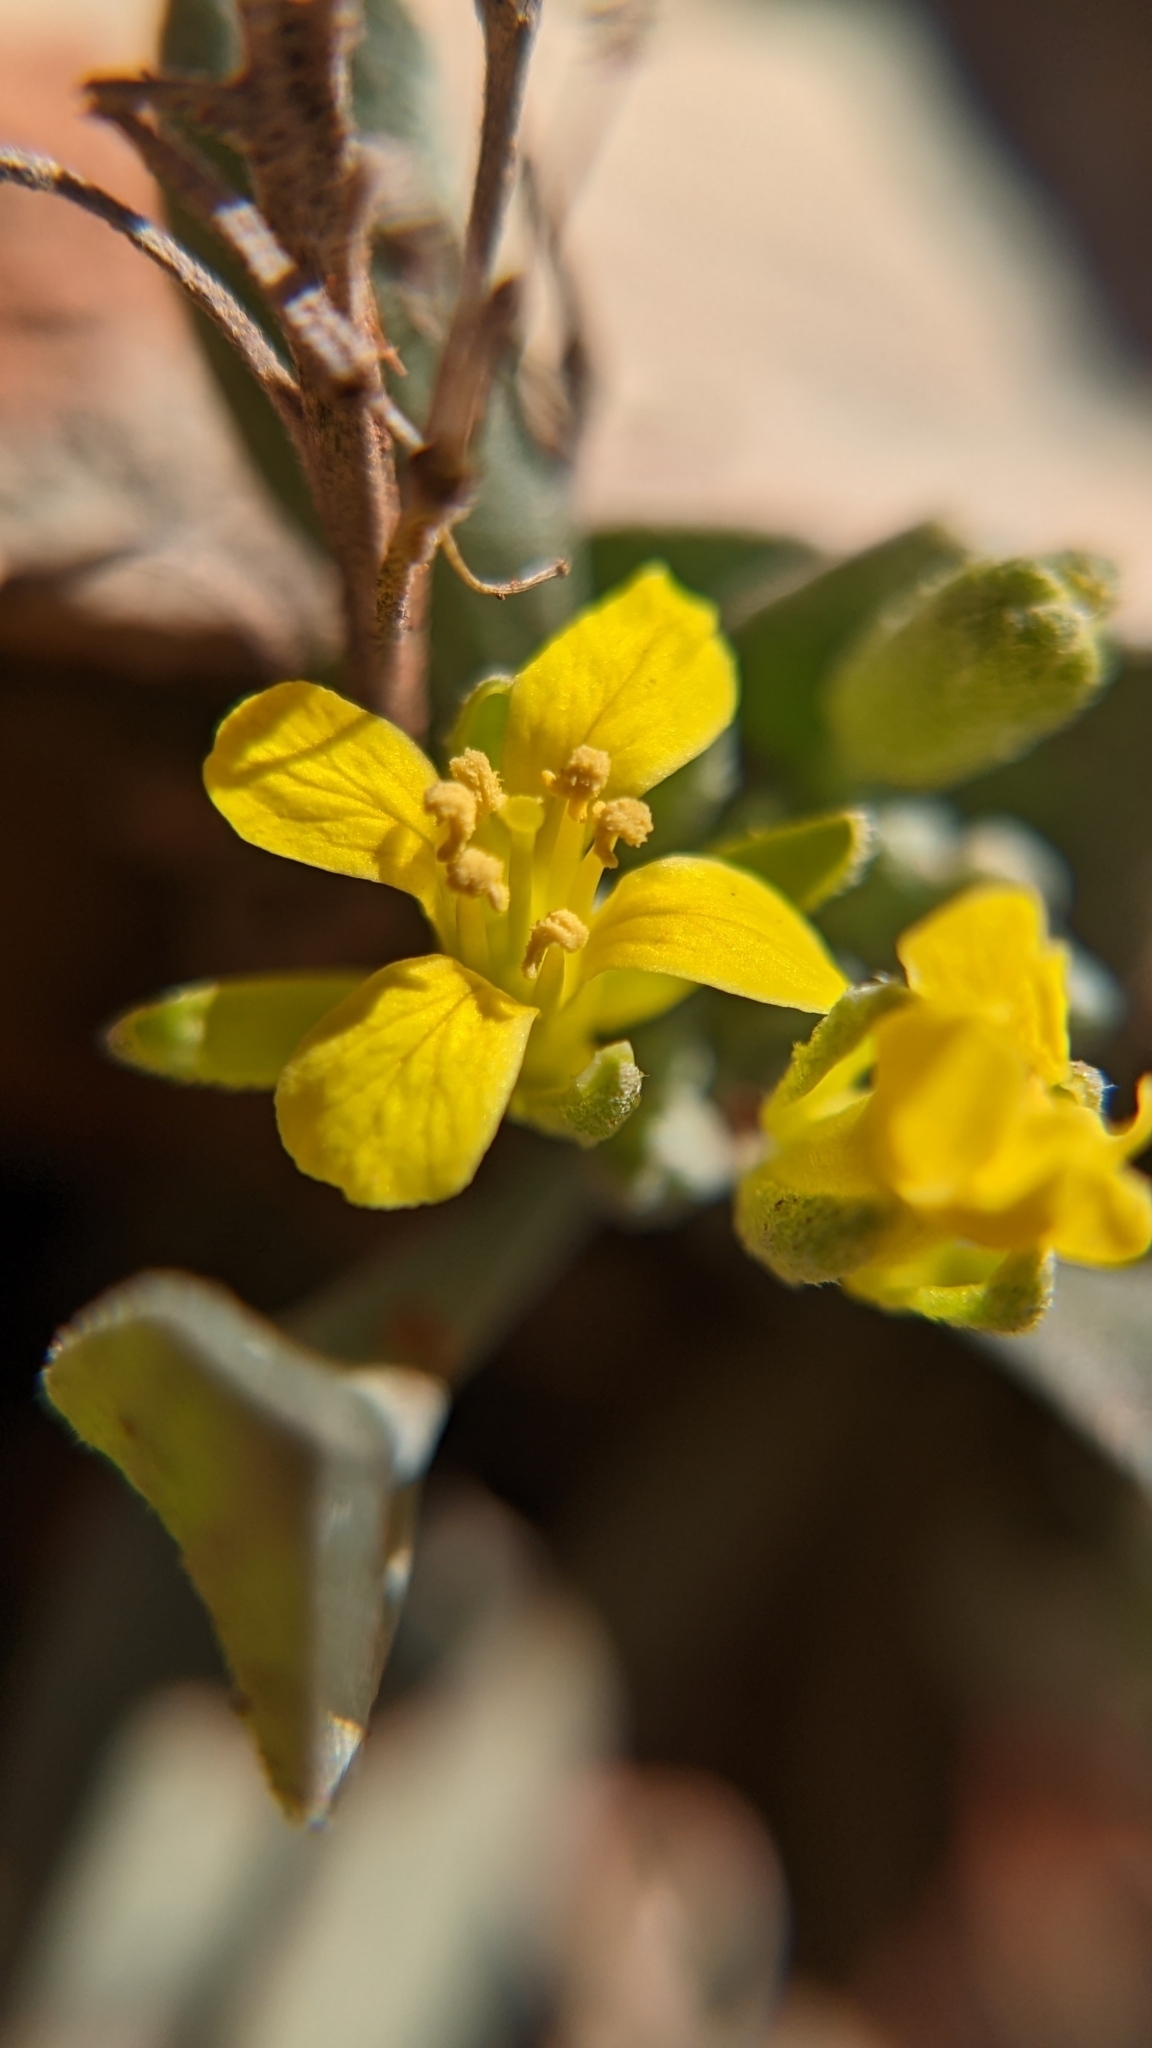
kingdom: Plantae
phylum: Tracheophyta
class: Magnoliopsida
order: Brassicales
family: Brassicaceae
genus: Physaria
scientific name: Physaria chambersii
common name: Chamber's twinpod
